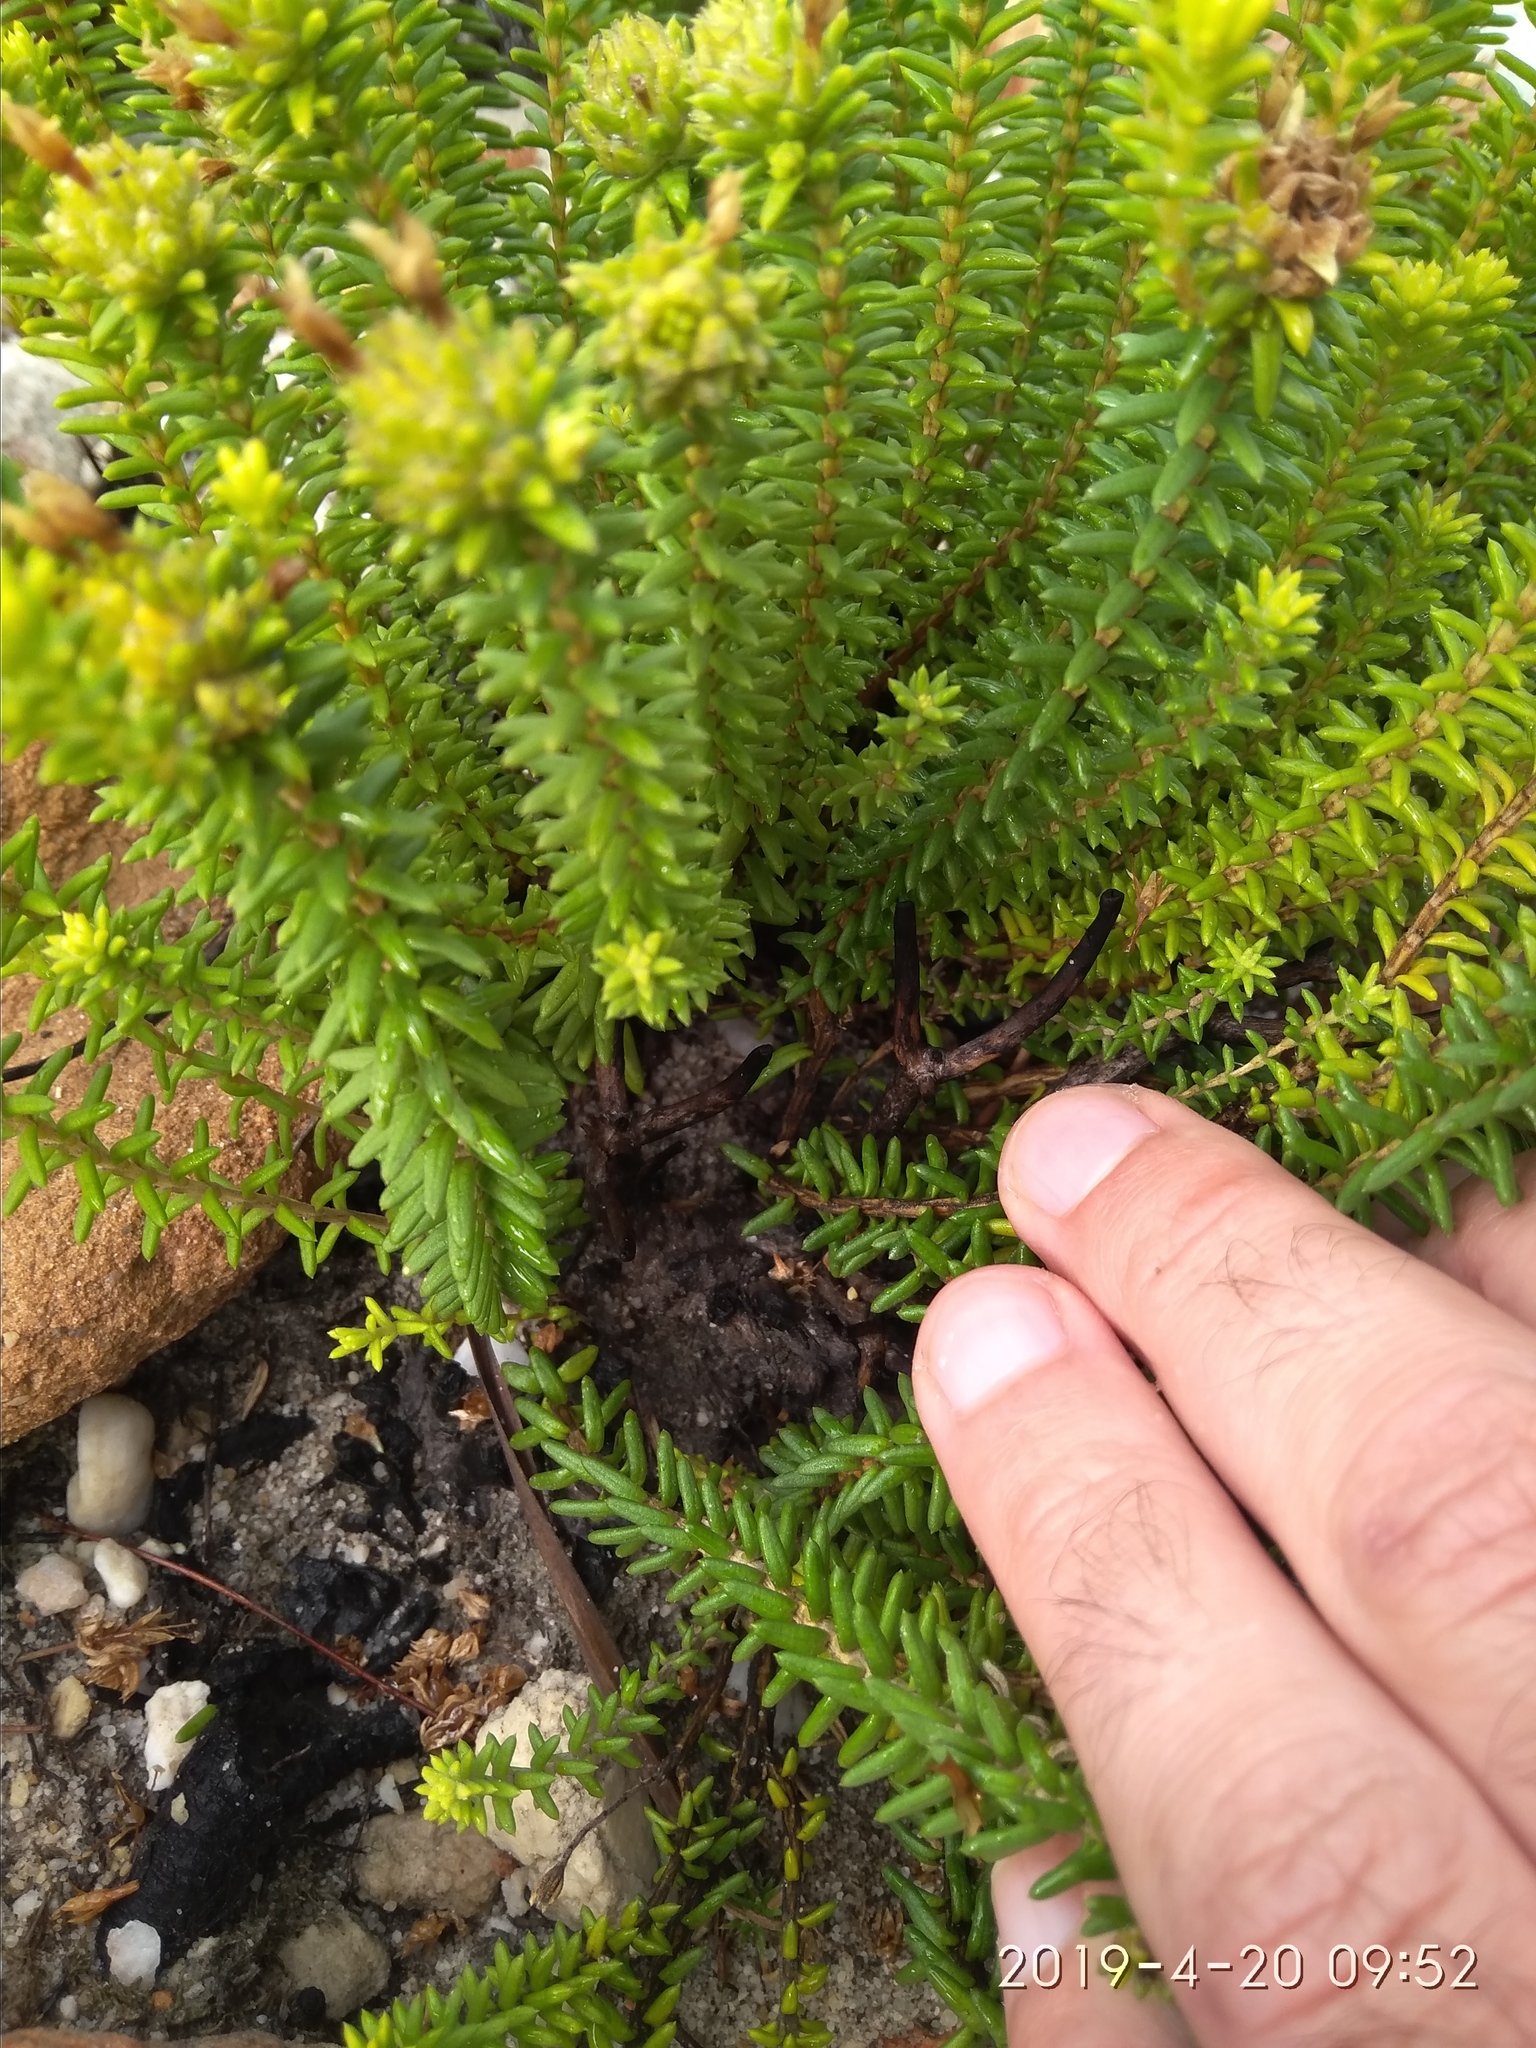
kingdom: Plantae
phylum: Tracheophyta
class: Magnoliopsida
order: Lamiales
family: Stilbaceae
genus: Campylostachys
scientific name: Campylostachys cernua
